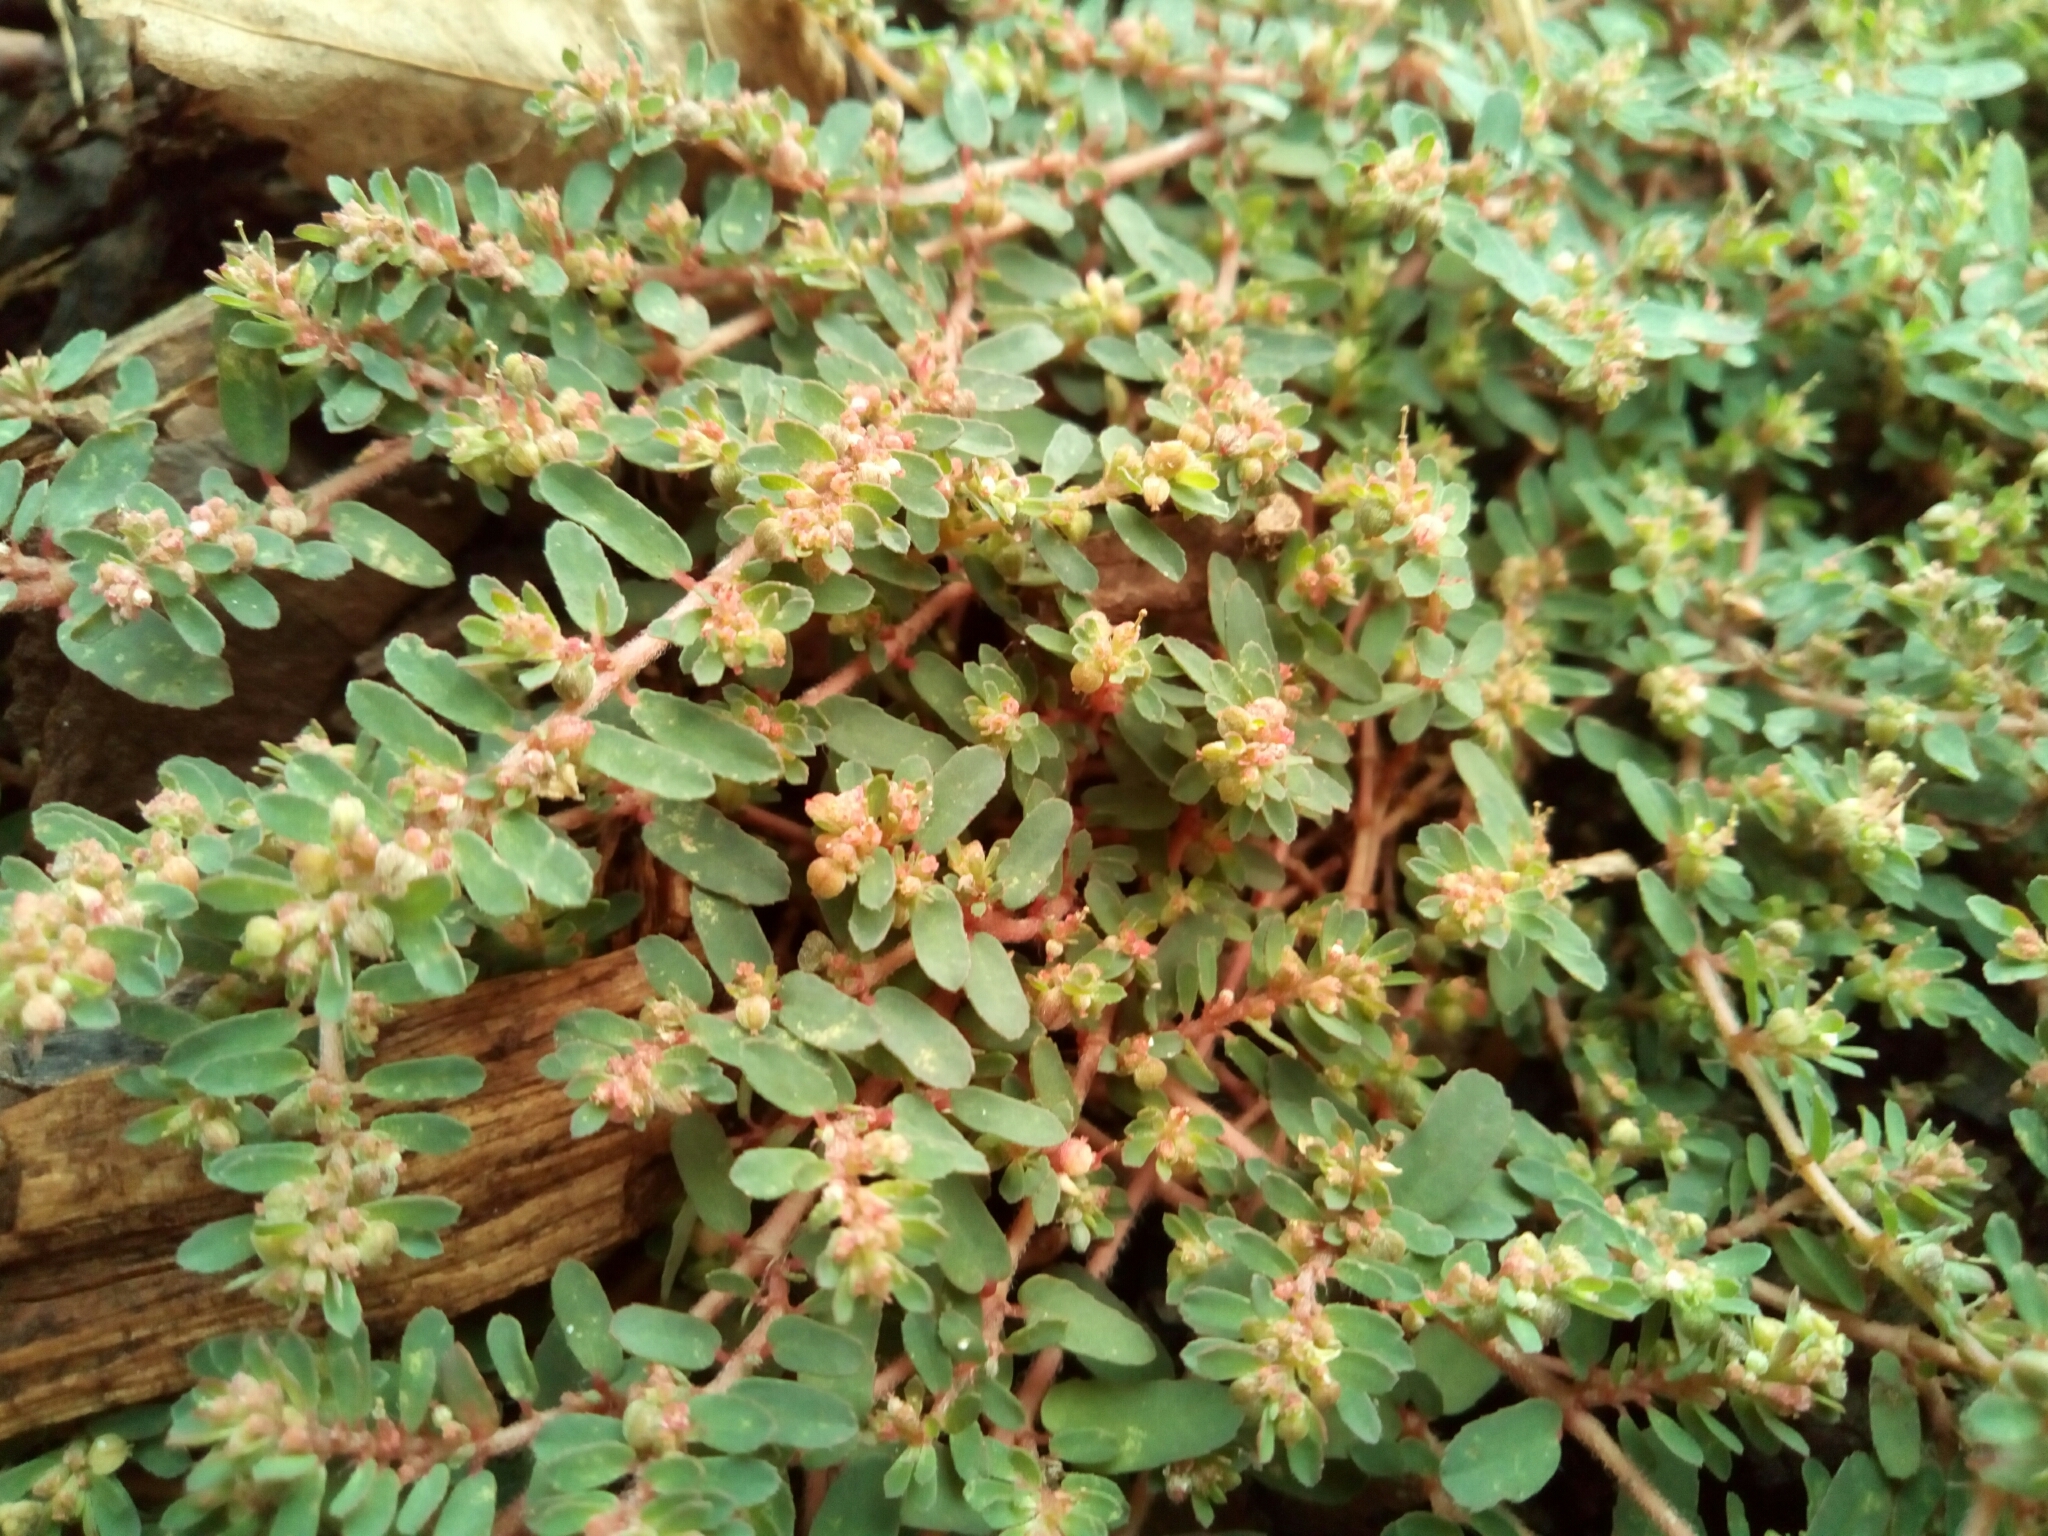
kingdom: Plantae
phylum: Tracheophyta
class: Magnoliopsida
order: Malpighiales
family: Euphorbiaceae
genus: Euphorbia
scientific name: Euphorbia maculata
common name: Spotted spurge
